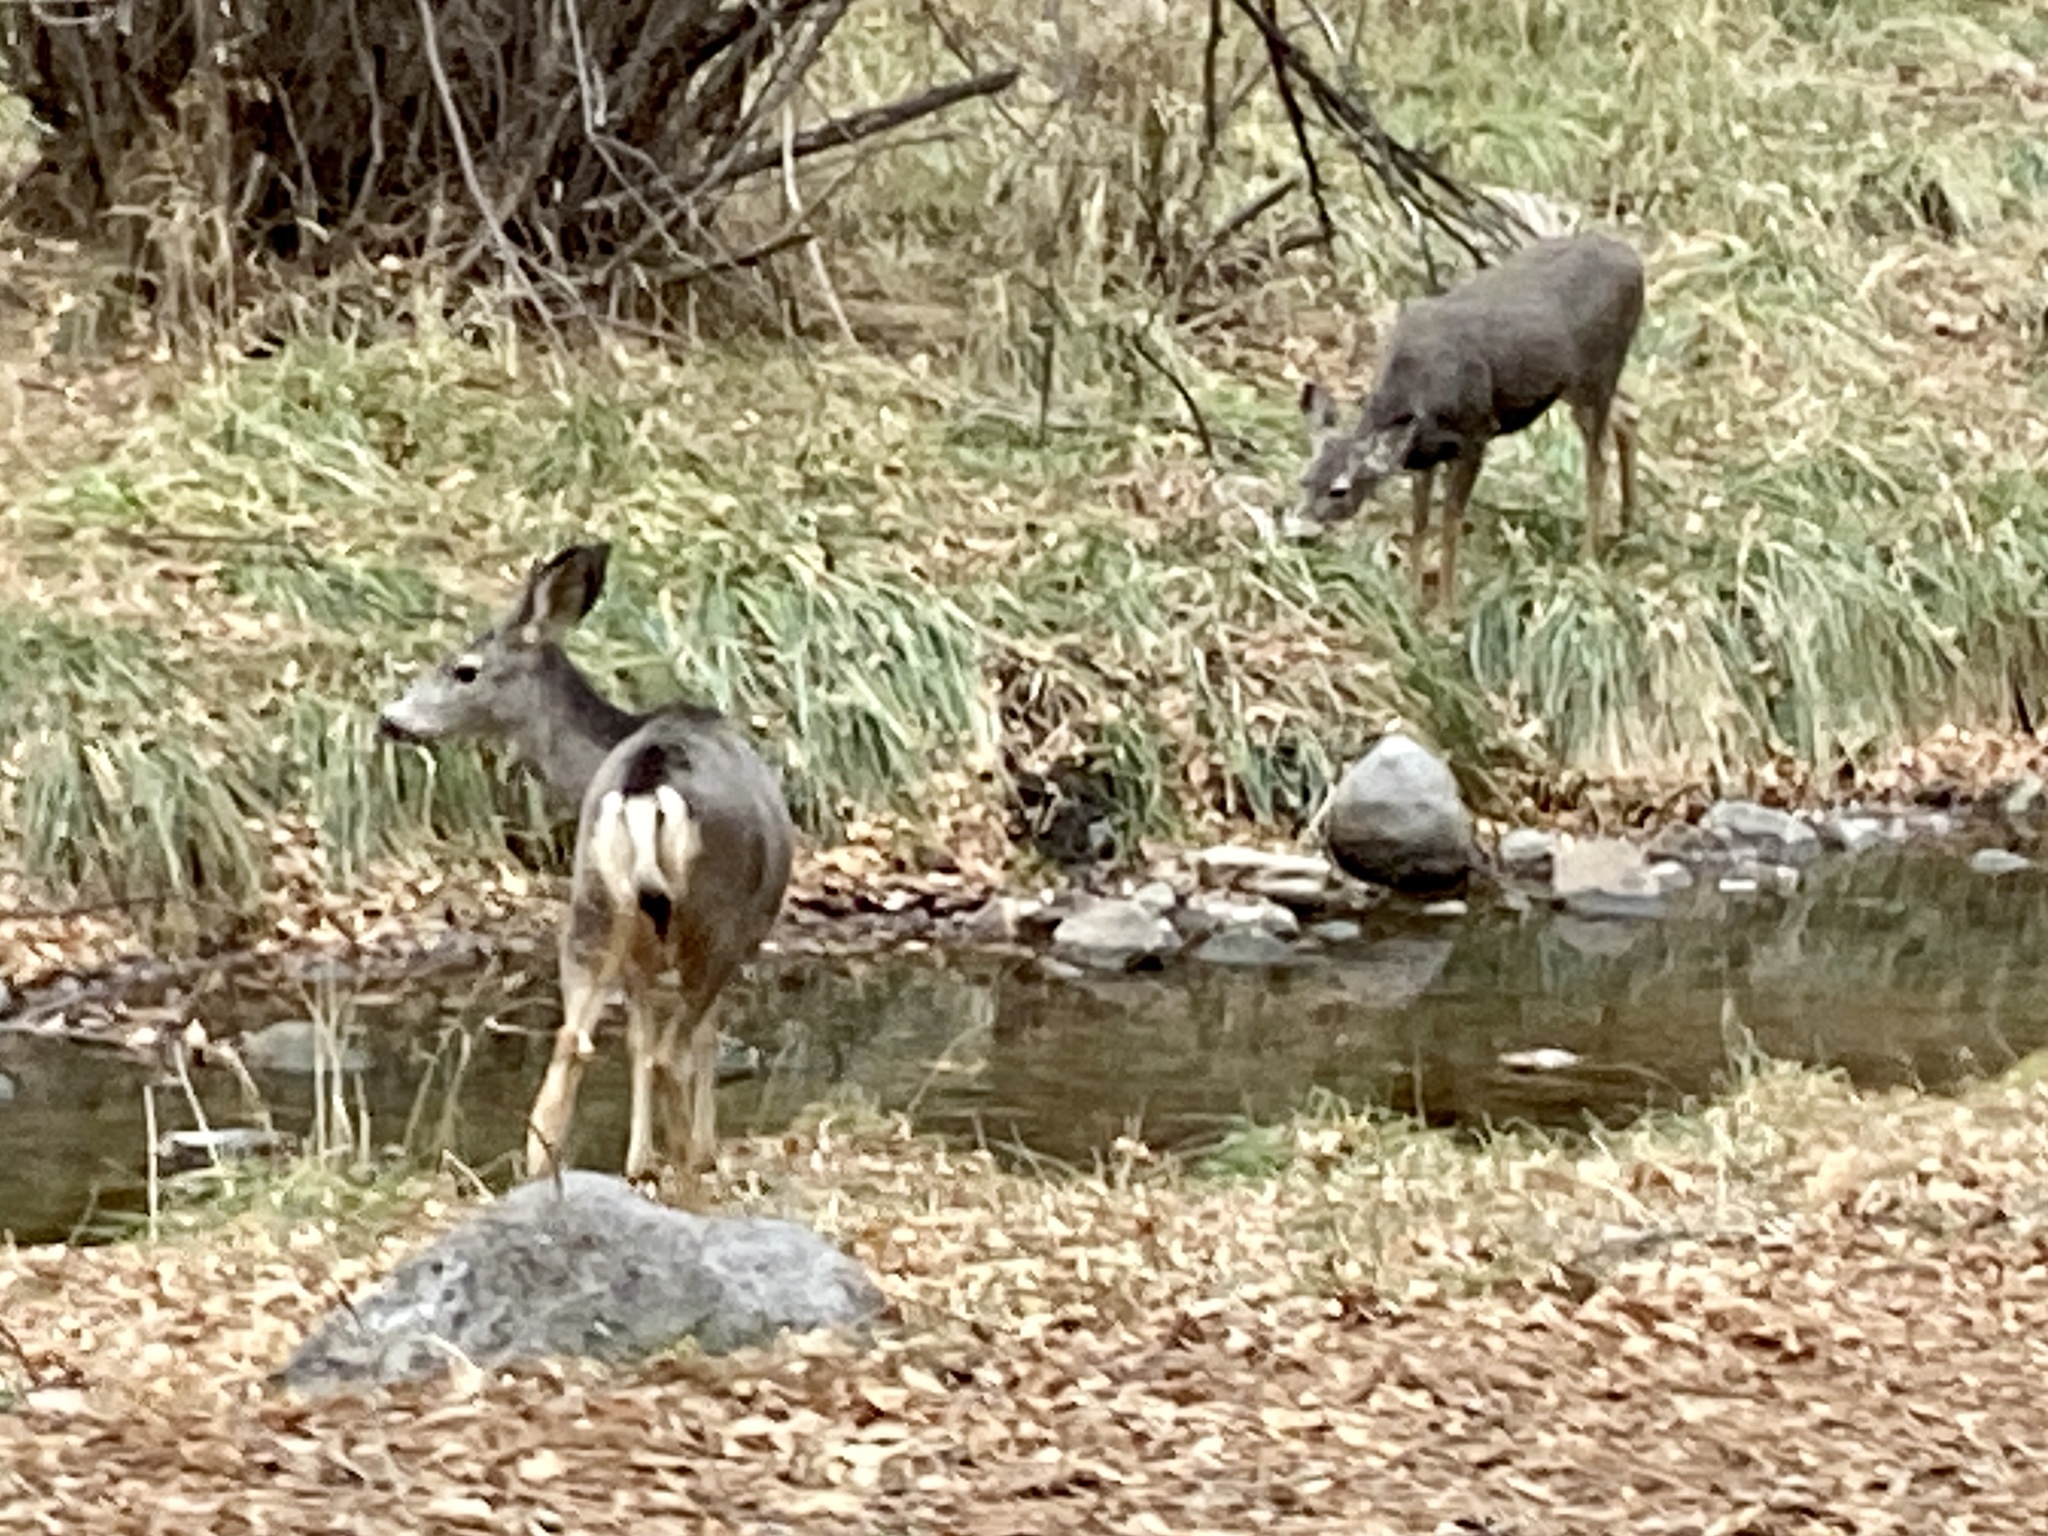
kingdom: Animalia
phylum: Chordata
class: Mammalia
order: Artiodactyla
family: Cervidae
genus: Odocoileus
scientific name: Odocoileus hemionus
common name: Mule deer
